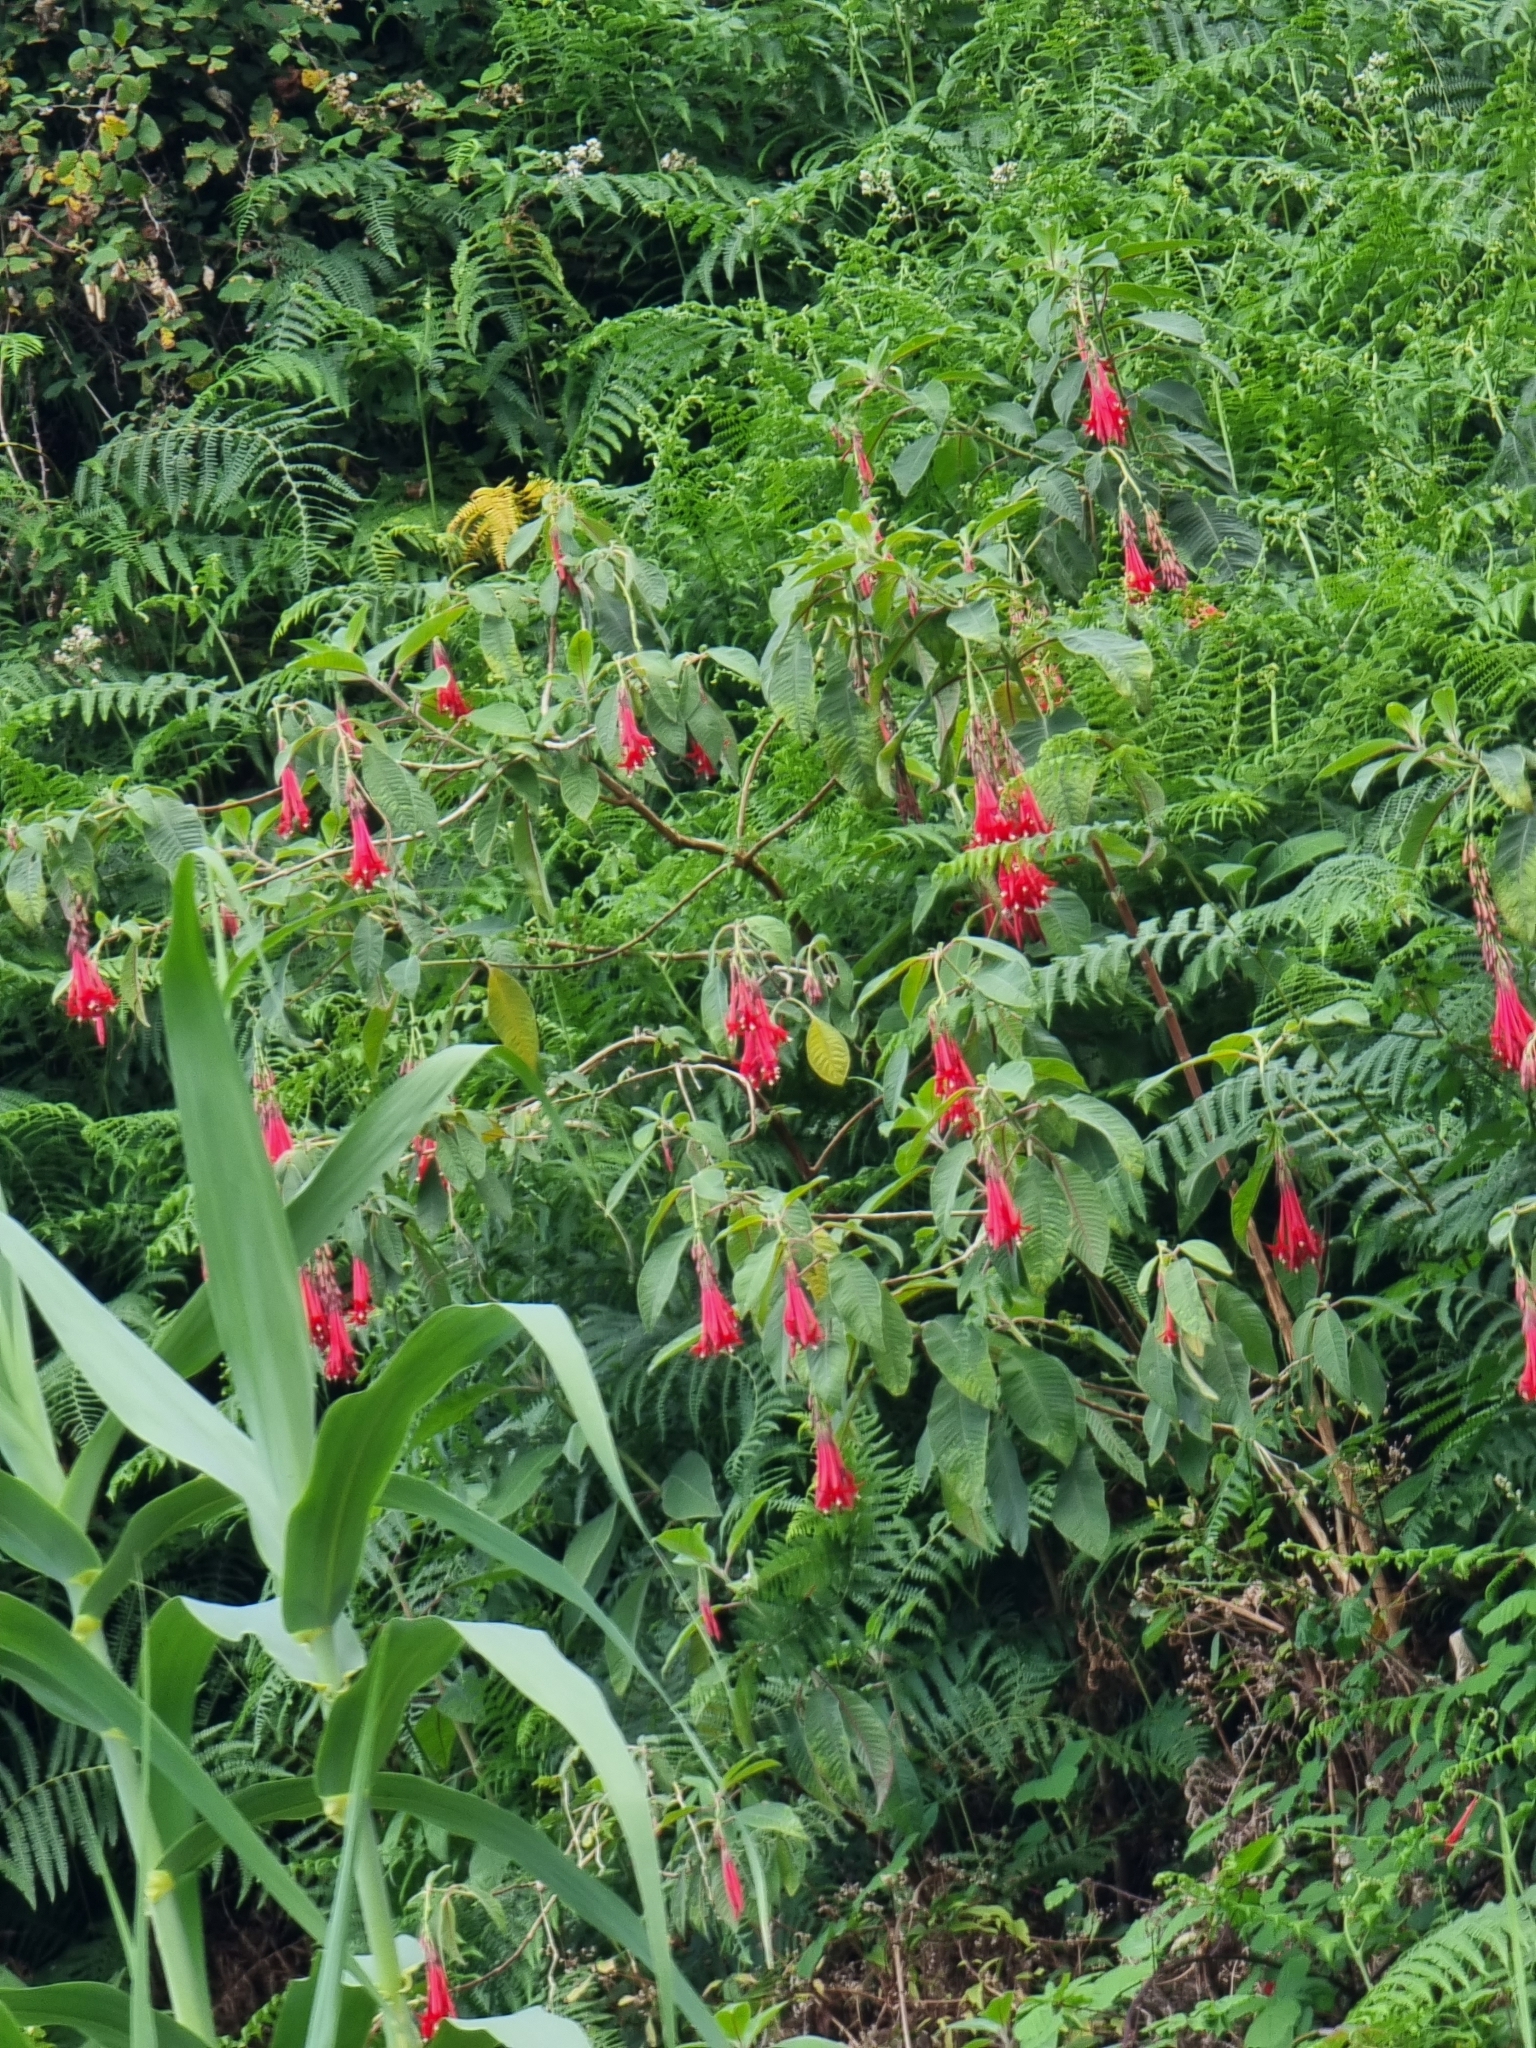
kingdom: Plantae
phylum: Tracheophyta
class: Magnoliopsida
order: Myrtales
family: Onagraceae
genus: Fuchsia
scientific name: Fuchsia boliviana
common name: Bolivian fuchsia
